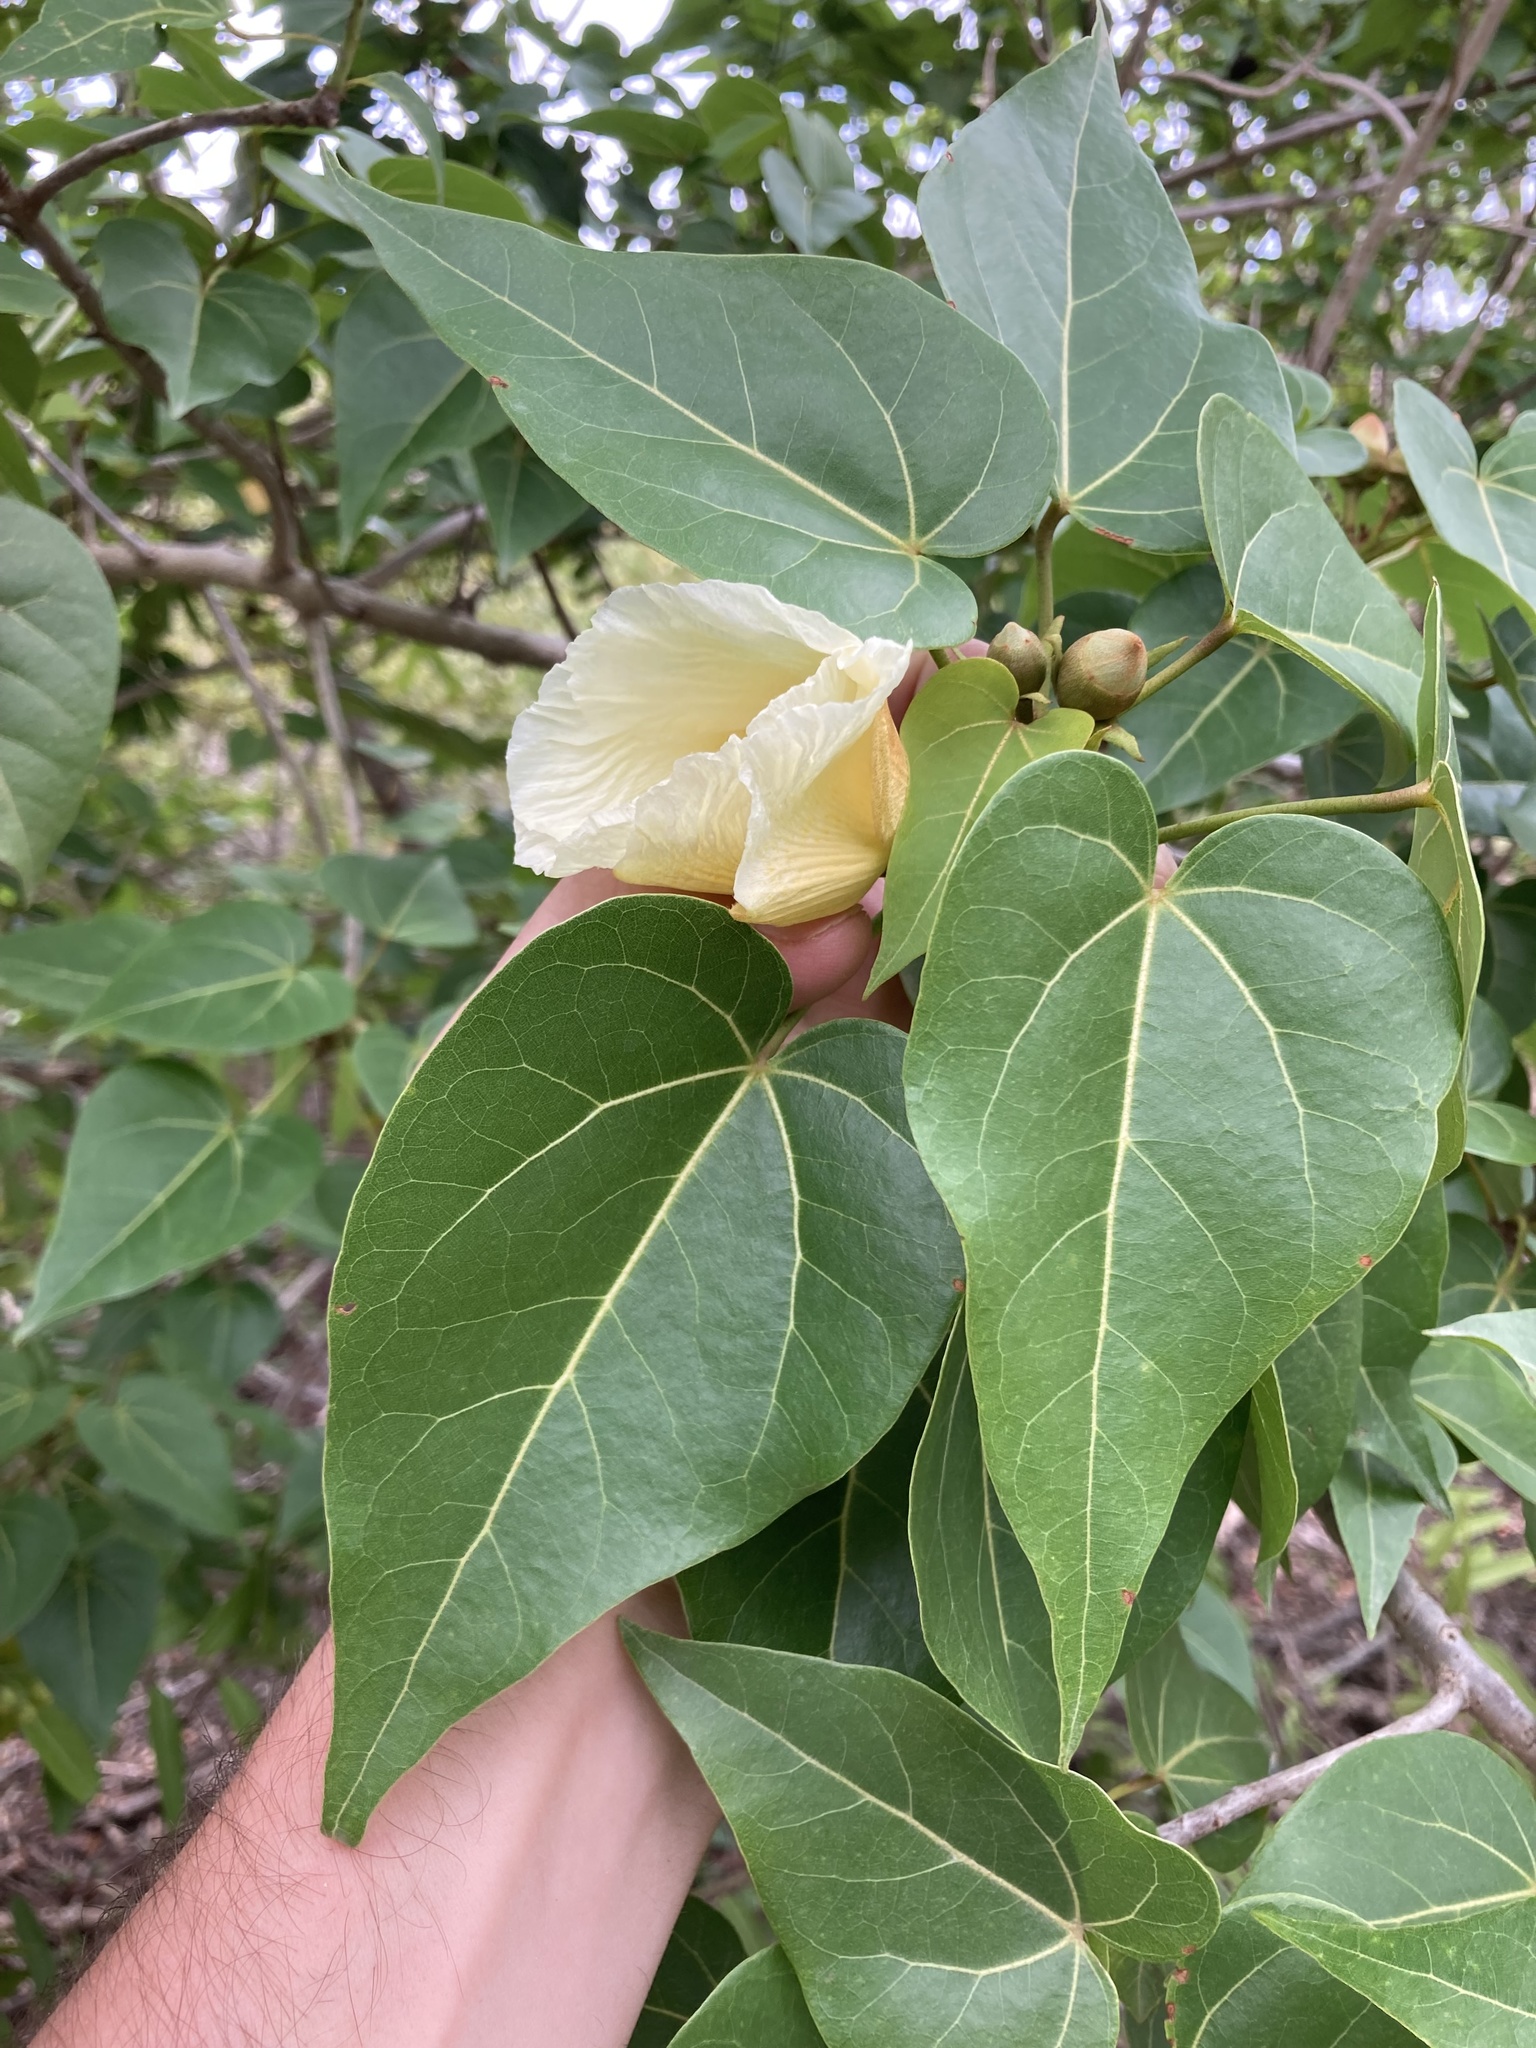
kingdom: Plantae
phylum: Tracheophyta
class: Magnoliopsida
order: Malvales
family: Malvaceae
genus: Thespesia
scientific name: Thespesia populnea
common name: Seaside mahoe
